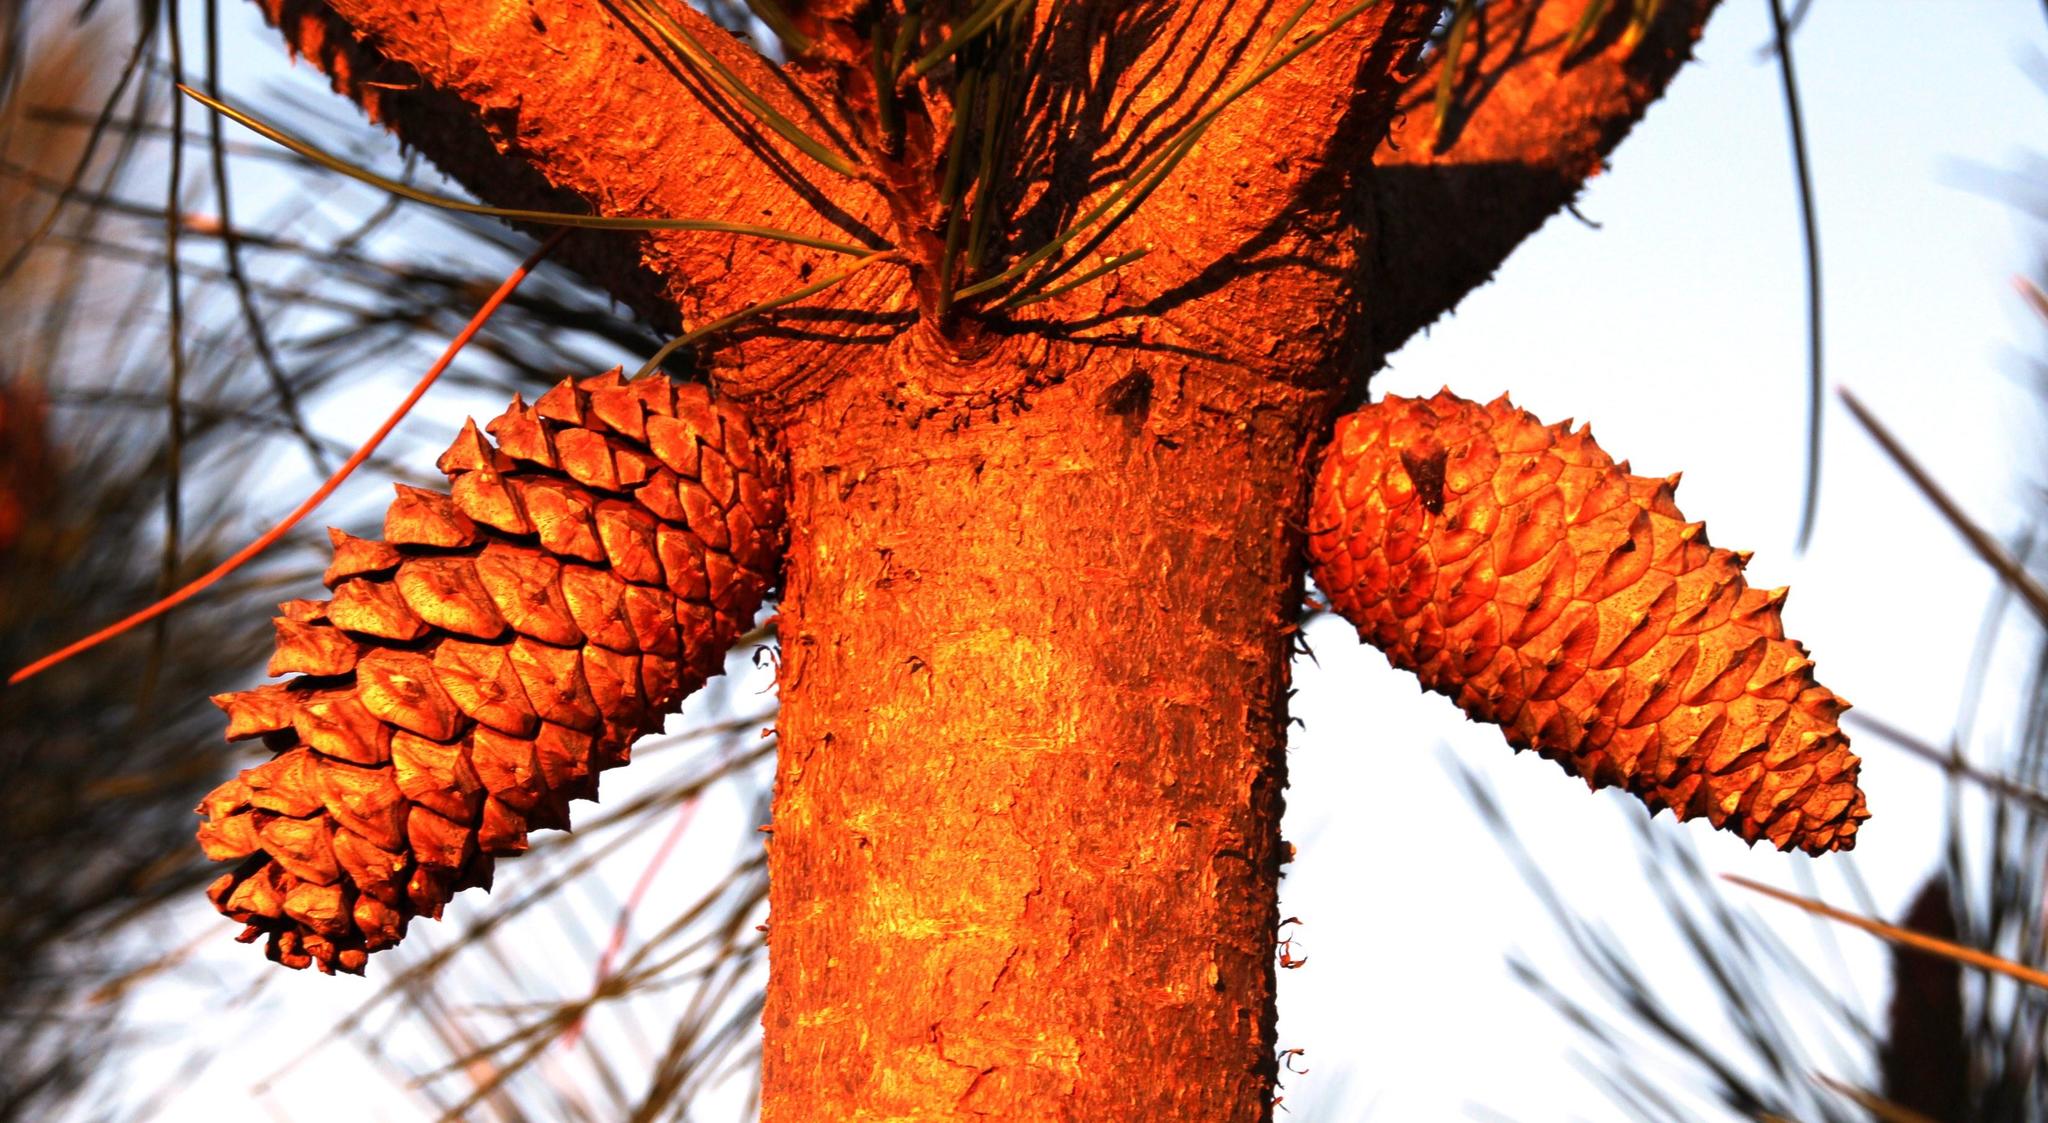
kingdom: Plantae
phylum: Tracheophyta
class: Pinopsida
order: Pinales
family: Pinaceae
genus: Pinus
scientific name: Pinus pinaster
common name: Maritime pine
